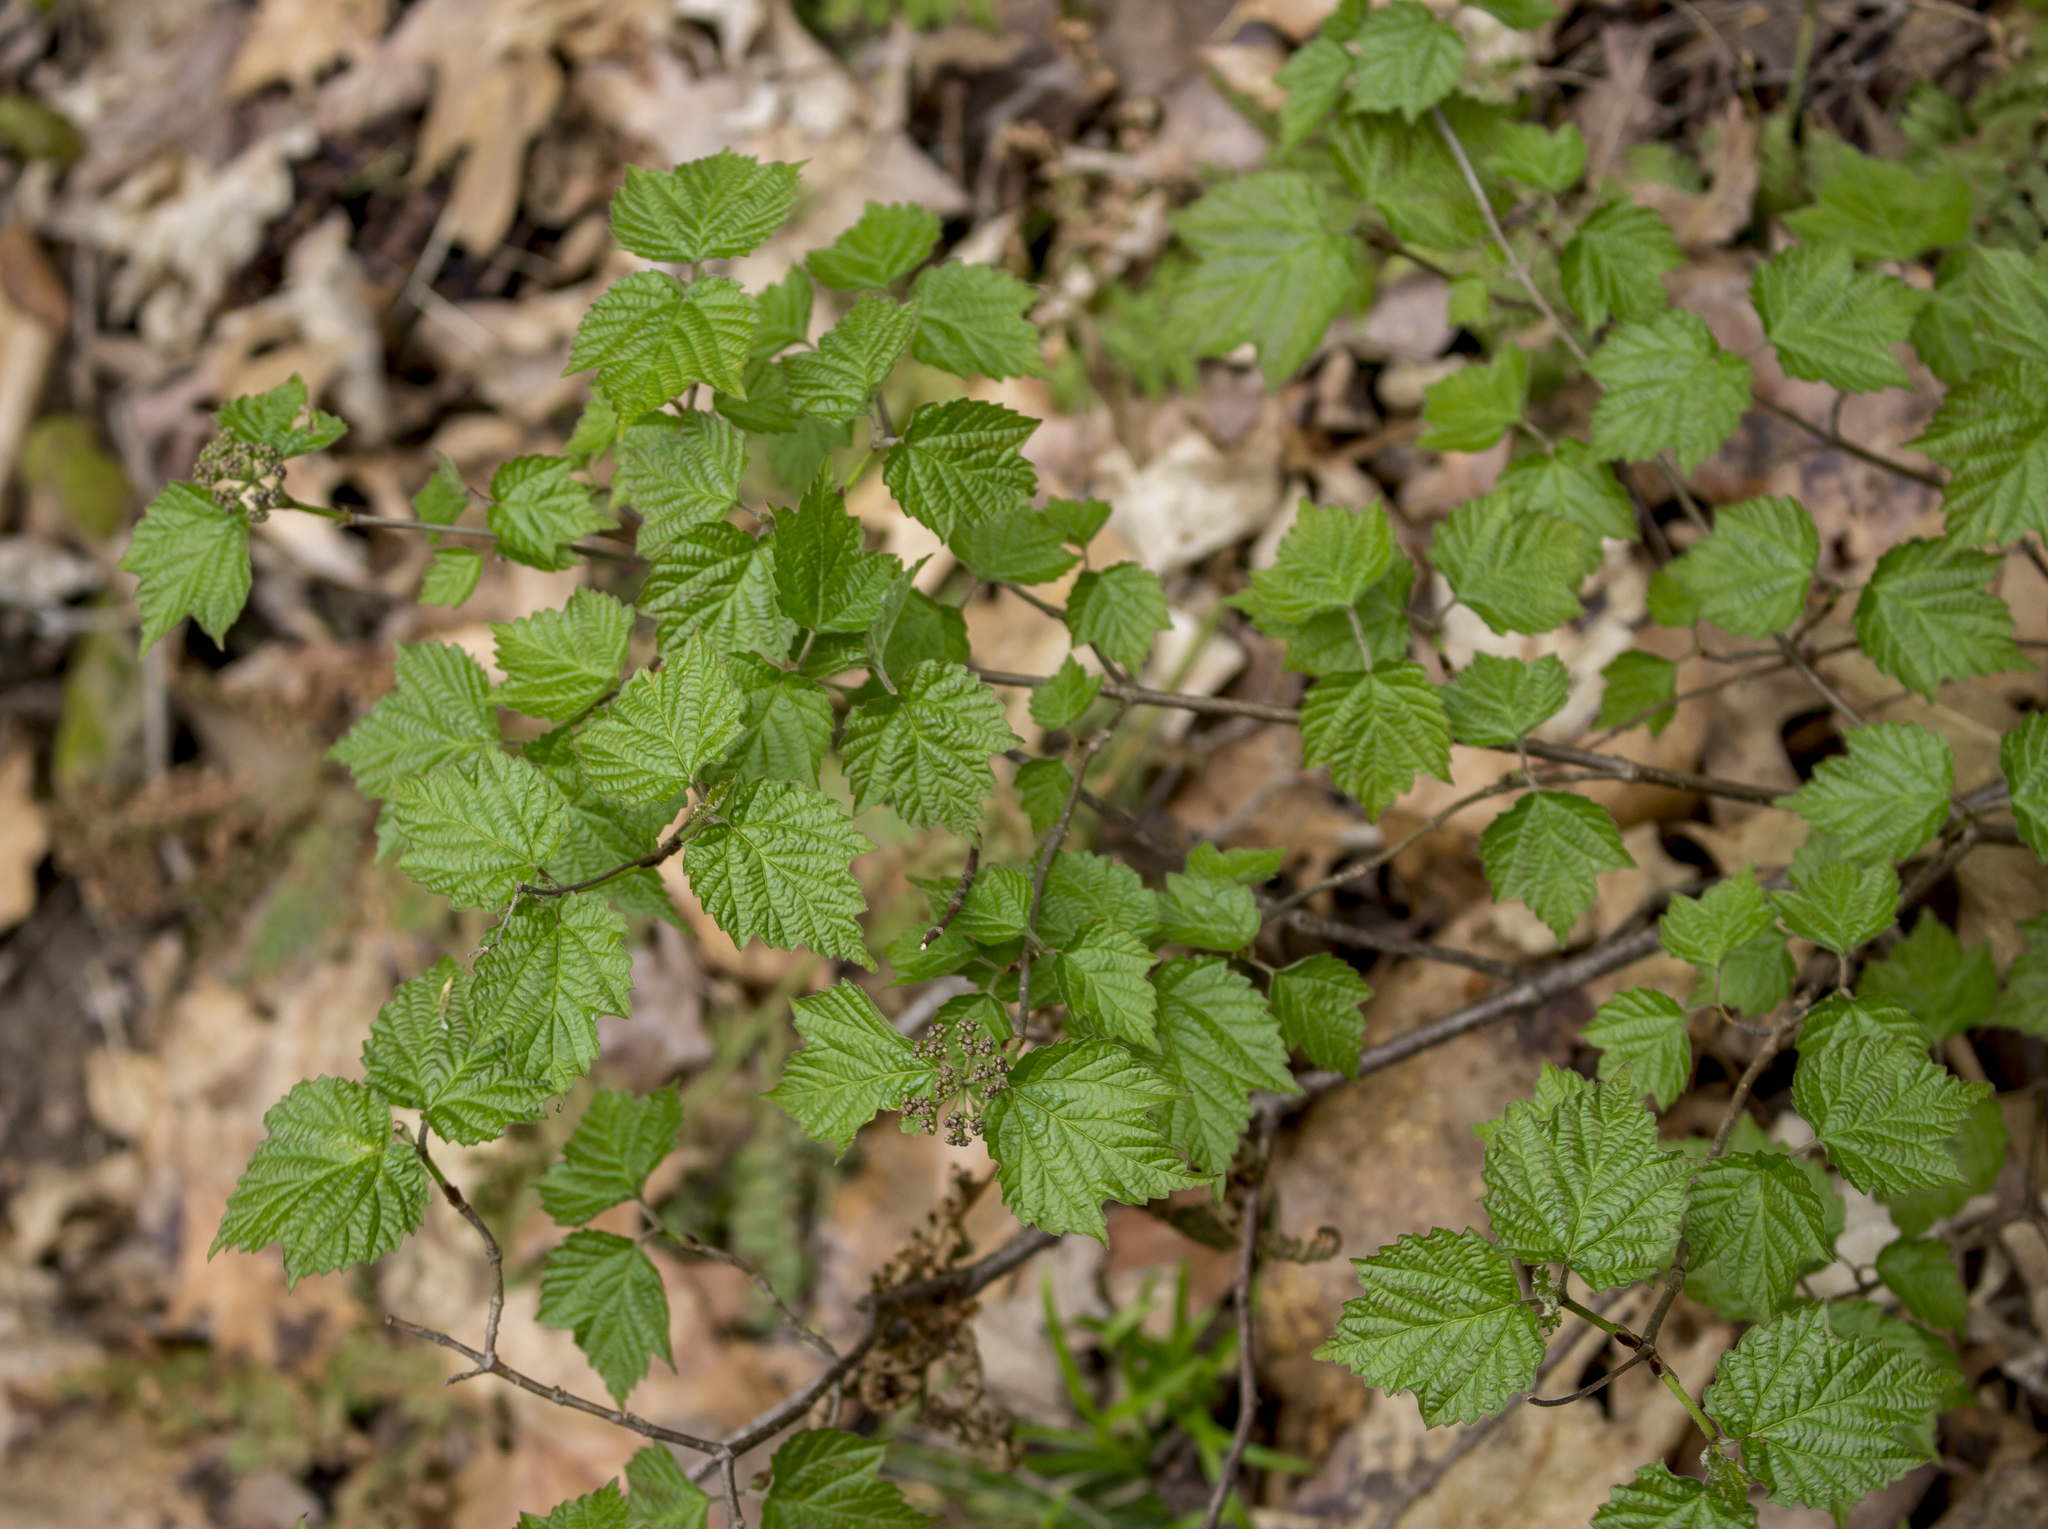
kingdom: Plantae
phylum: Tracheophyta
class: Magnoliopsida
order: Dipsacales
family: Viburnaceae
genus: Viburnum
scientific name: Viburnum acerifolium
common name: Dockmackie
